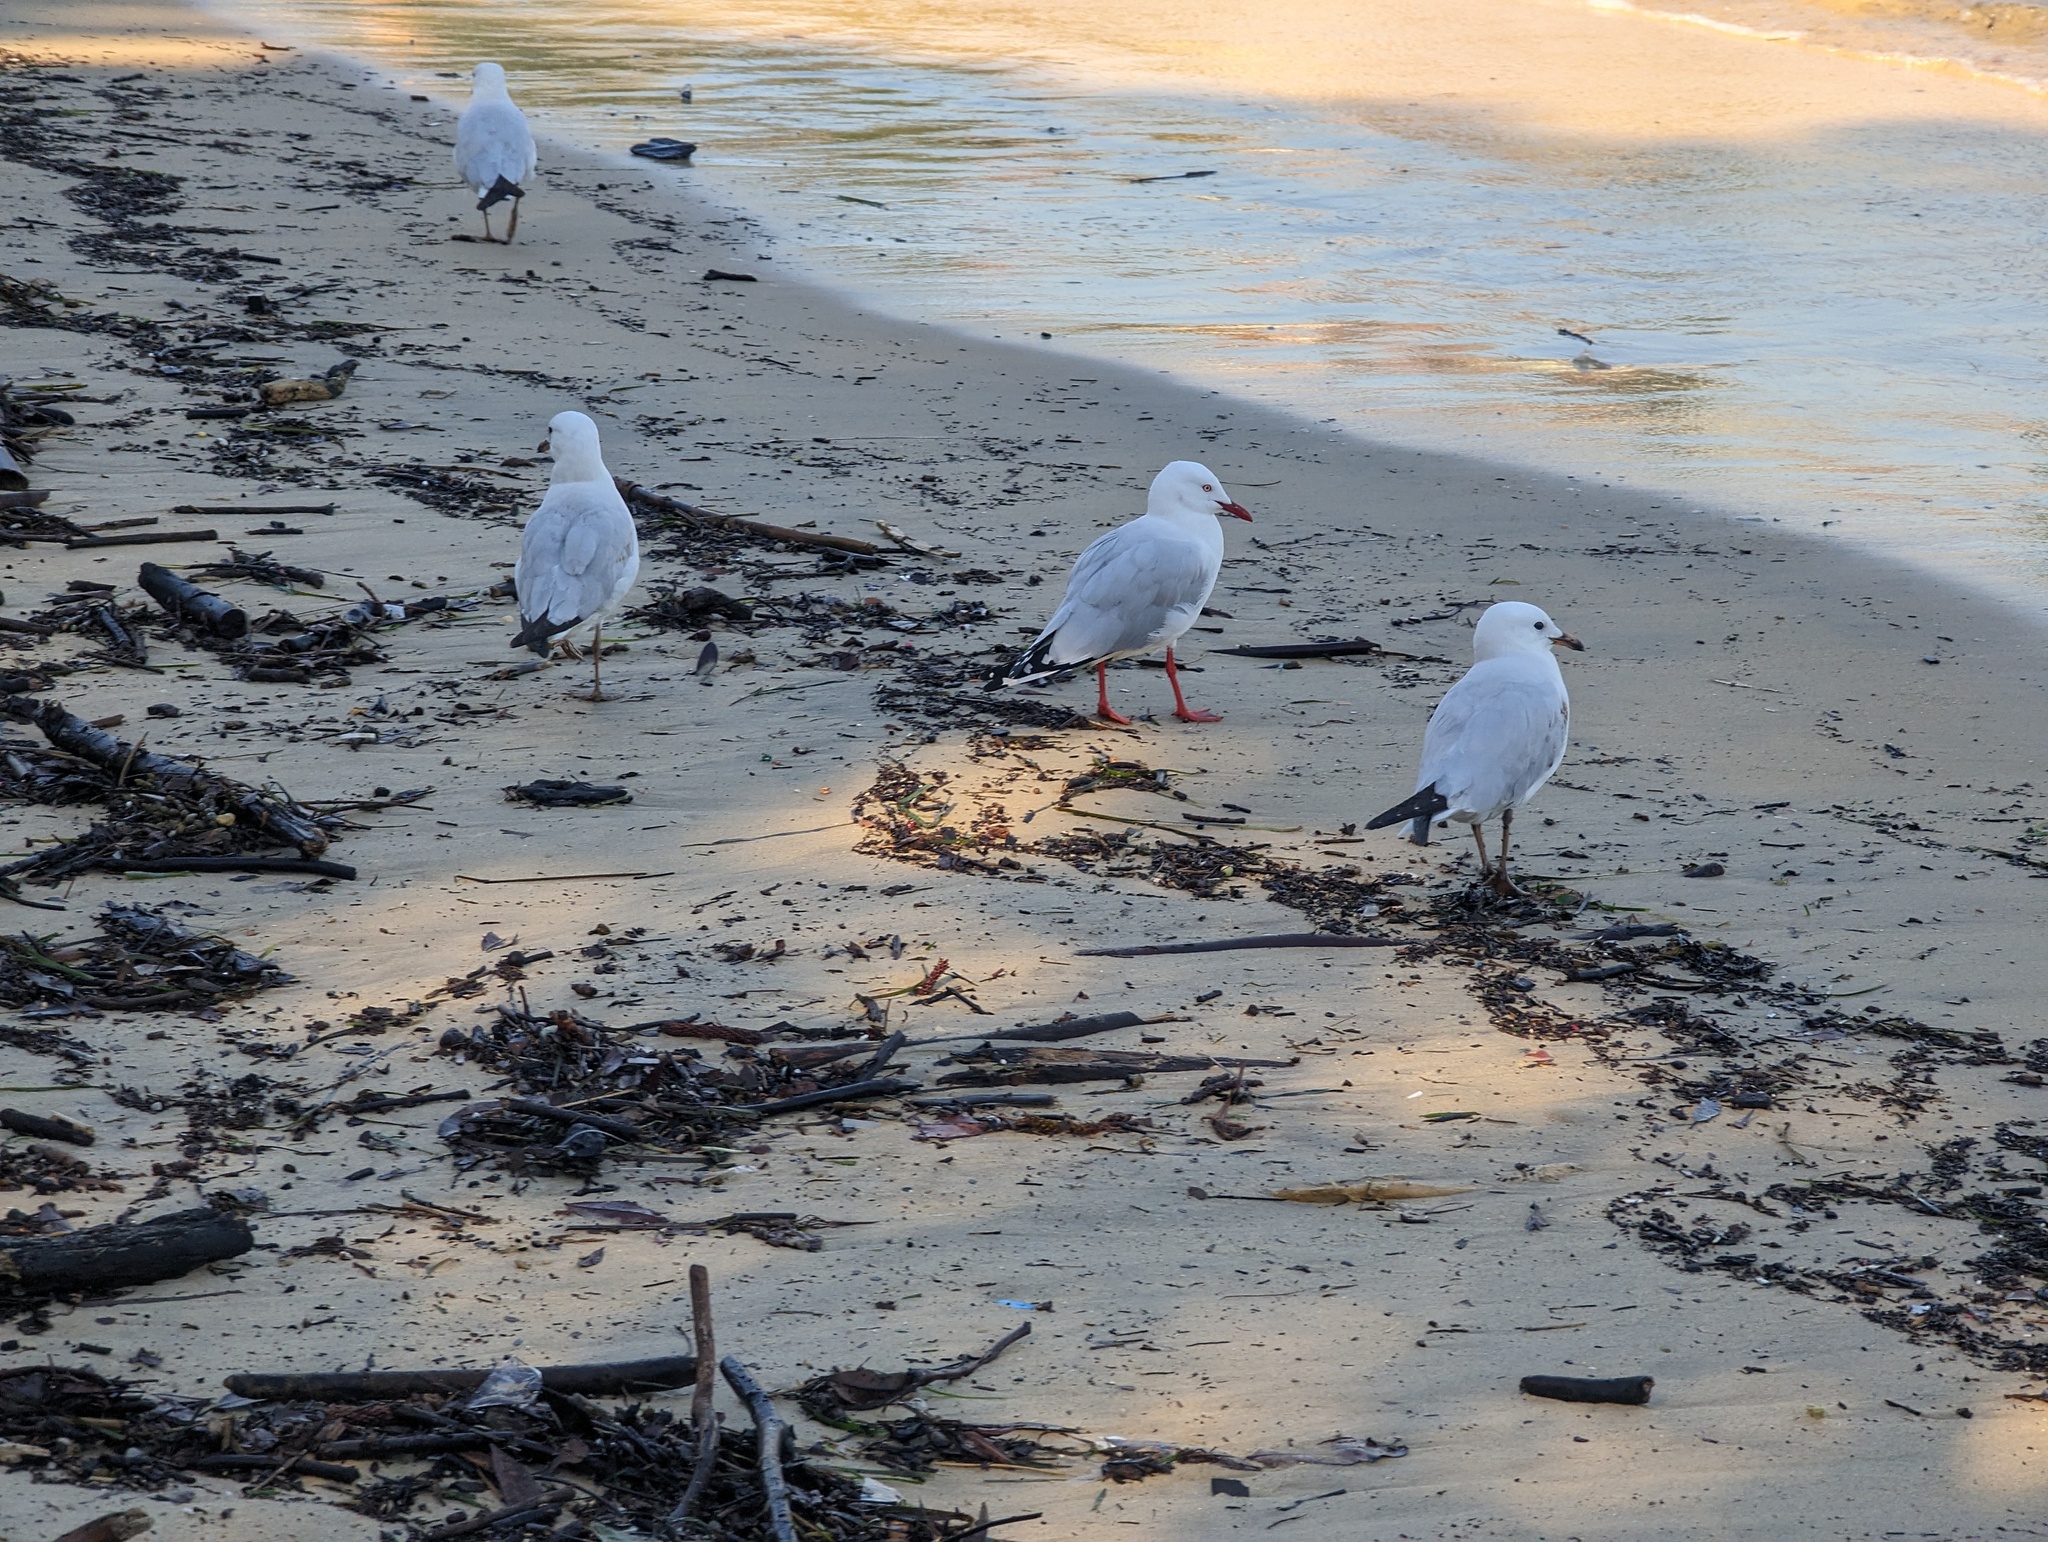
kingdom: Animalia
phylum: Chordata
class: Aves
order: Charadriiformes
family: Laridae
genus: Chroicocephalus
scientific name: Chroicocephalus novaehollandiae
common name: Silver gull
